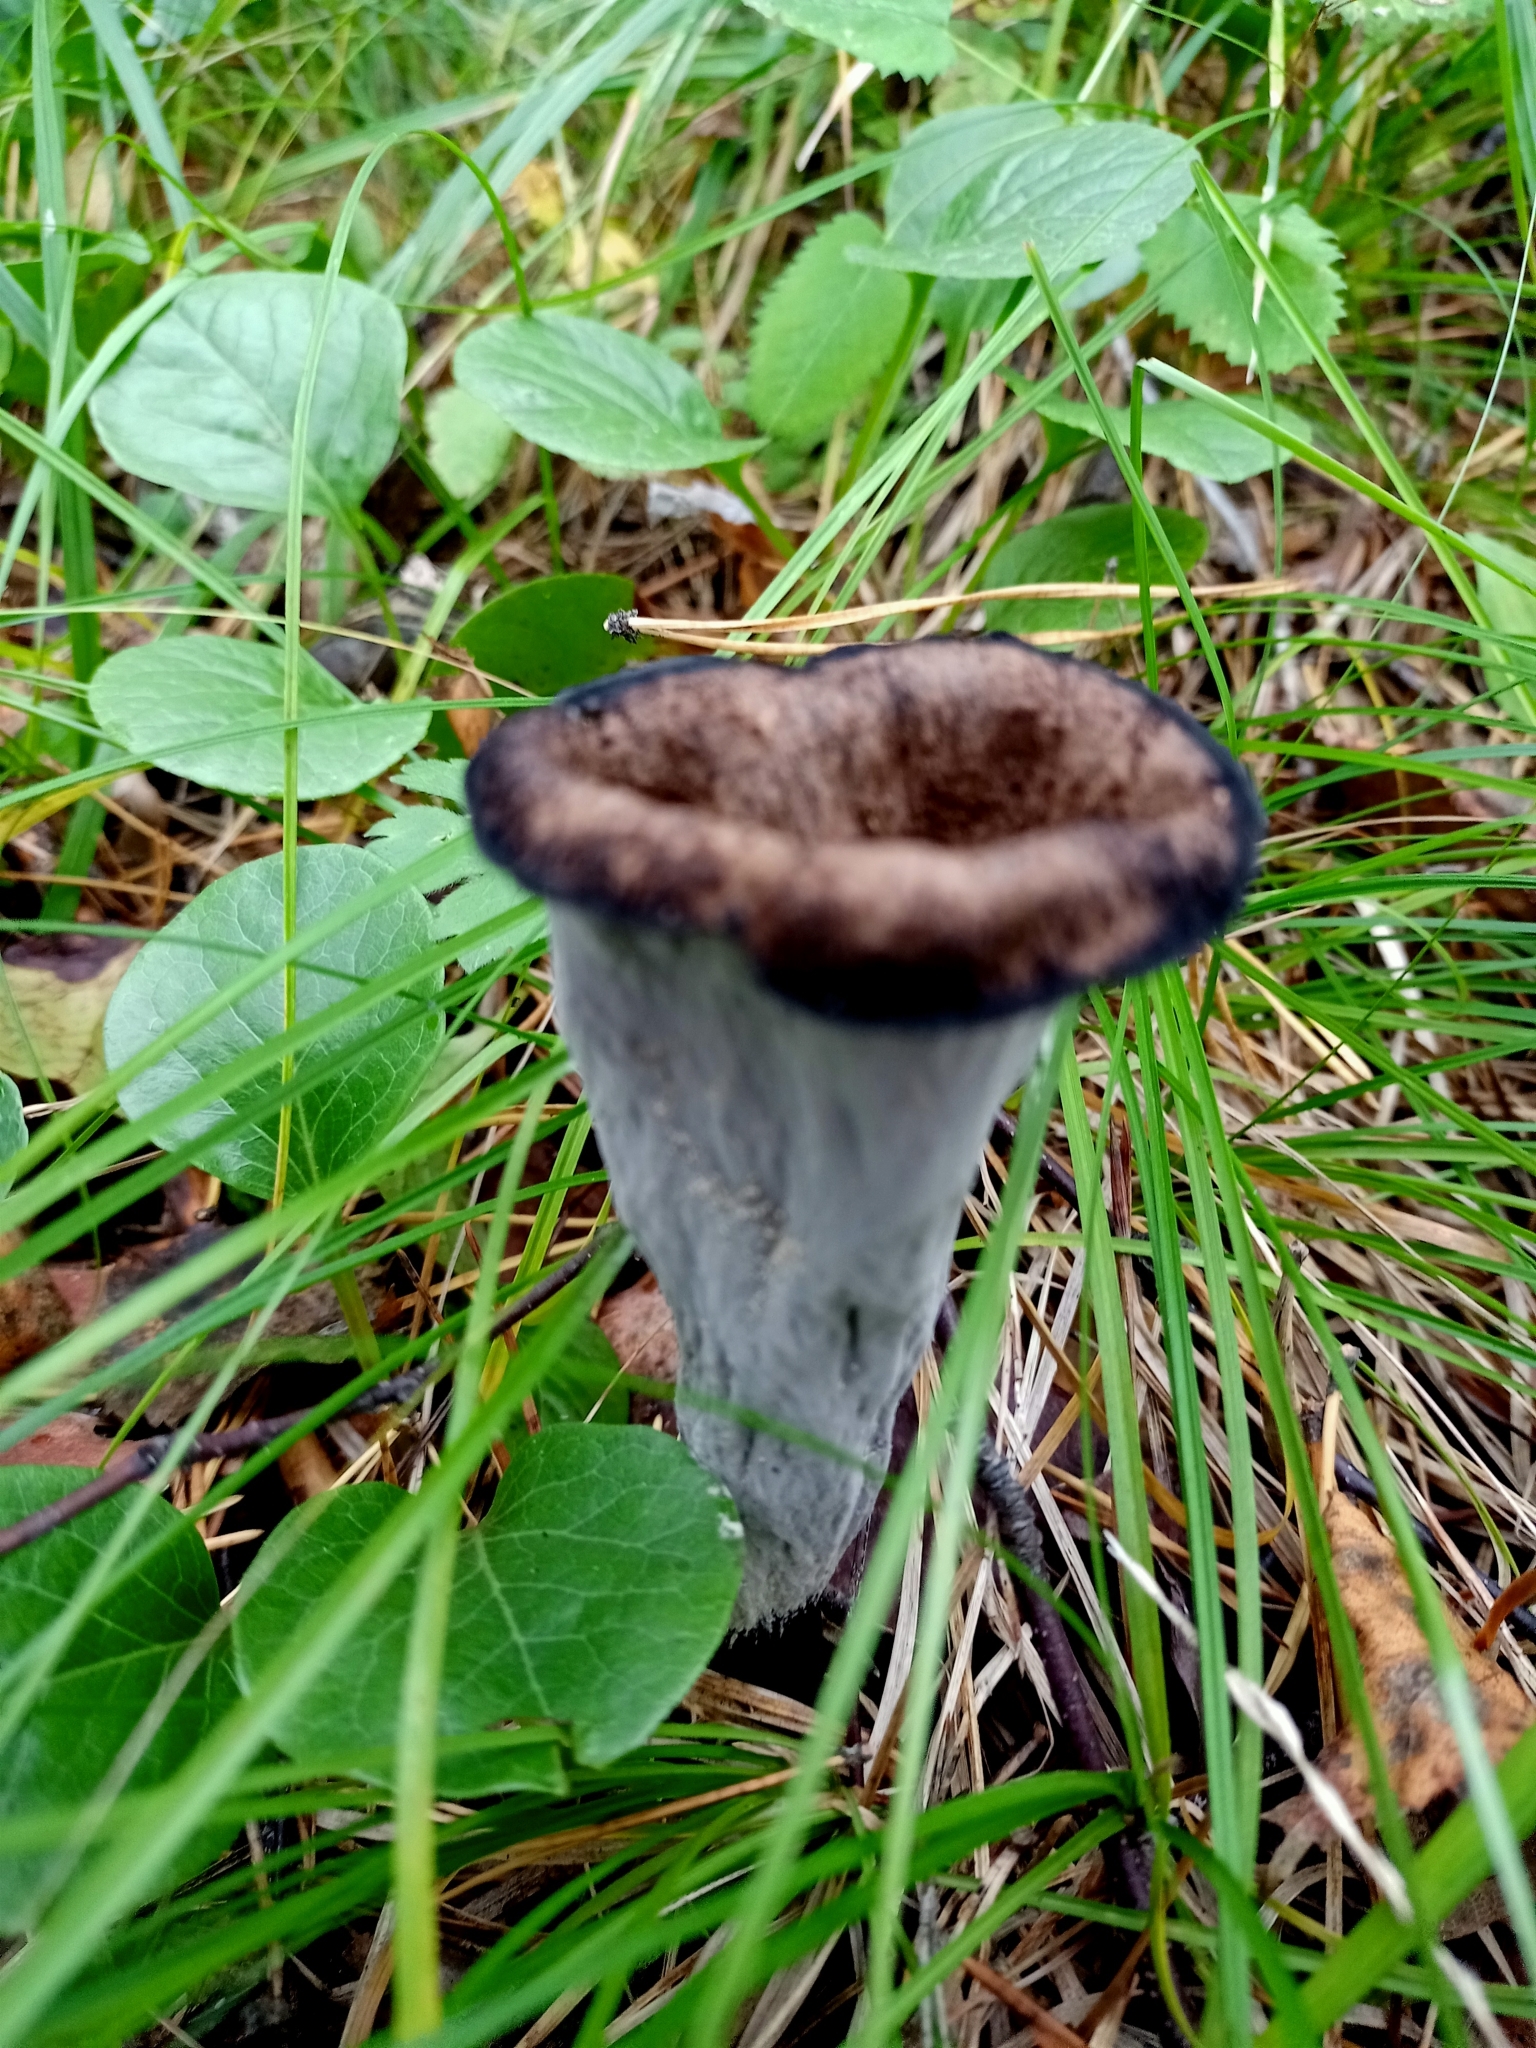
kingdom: Fungi
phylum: Basidiomycota
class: Agaricomycetes
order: Cantharellales
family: Hydnaceae
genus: Craterellus
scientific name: Craterellus cornucopioides
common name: Horn of plenty
